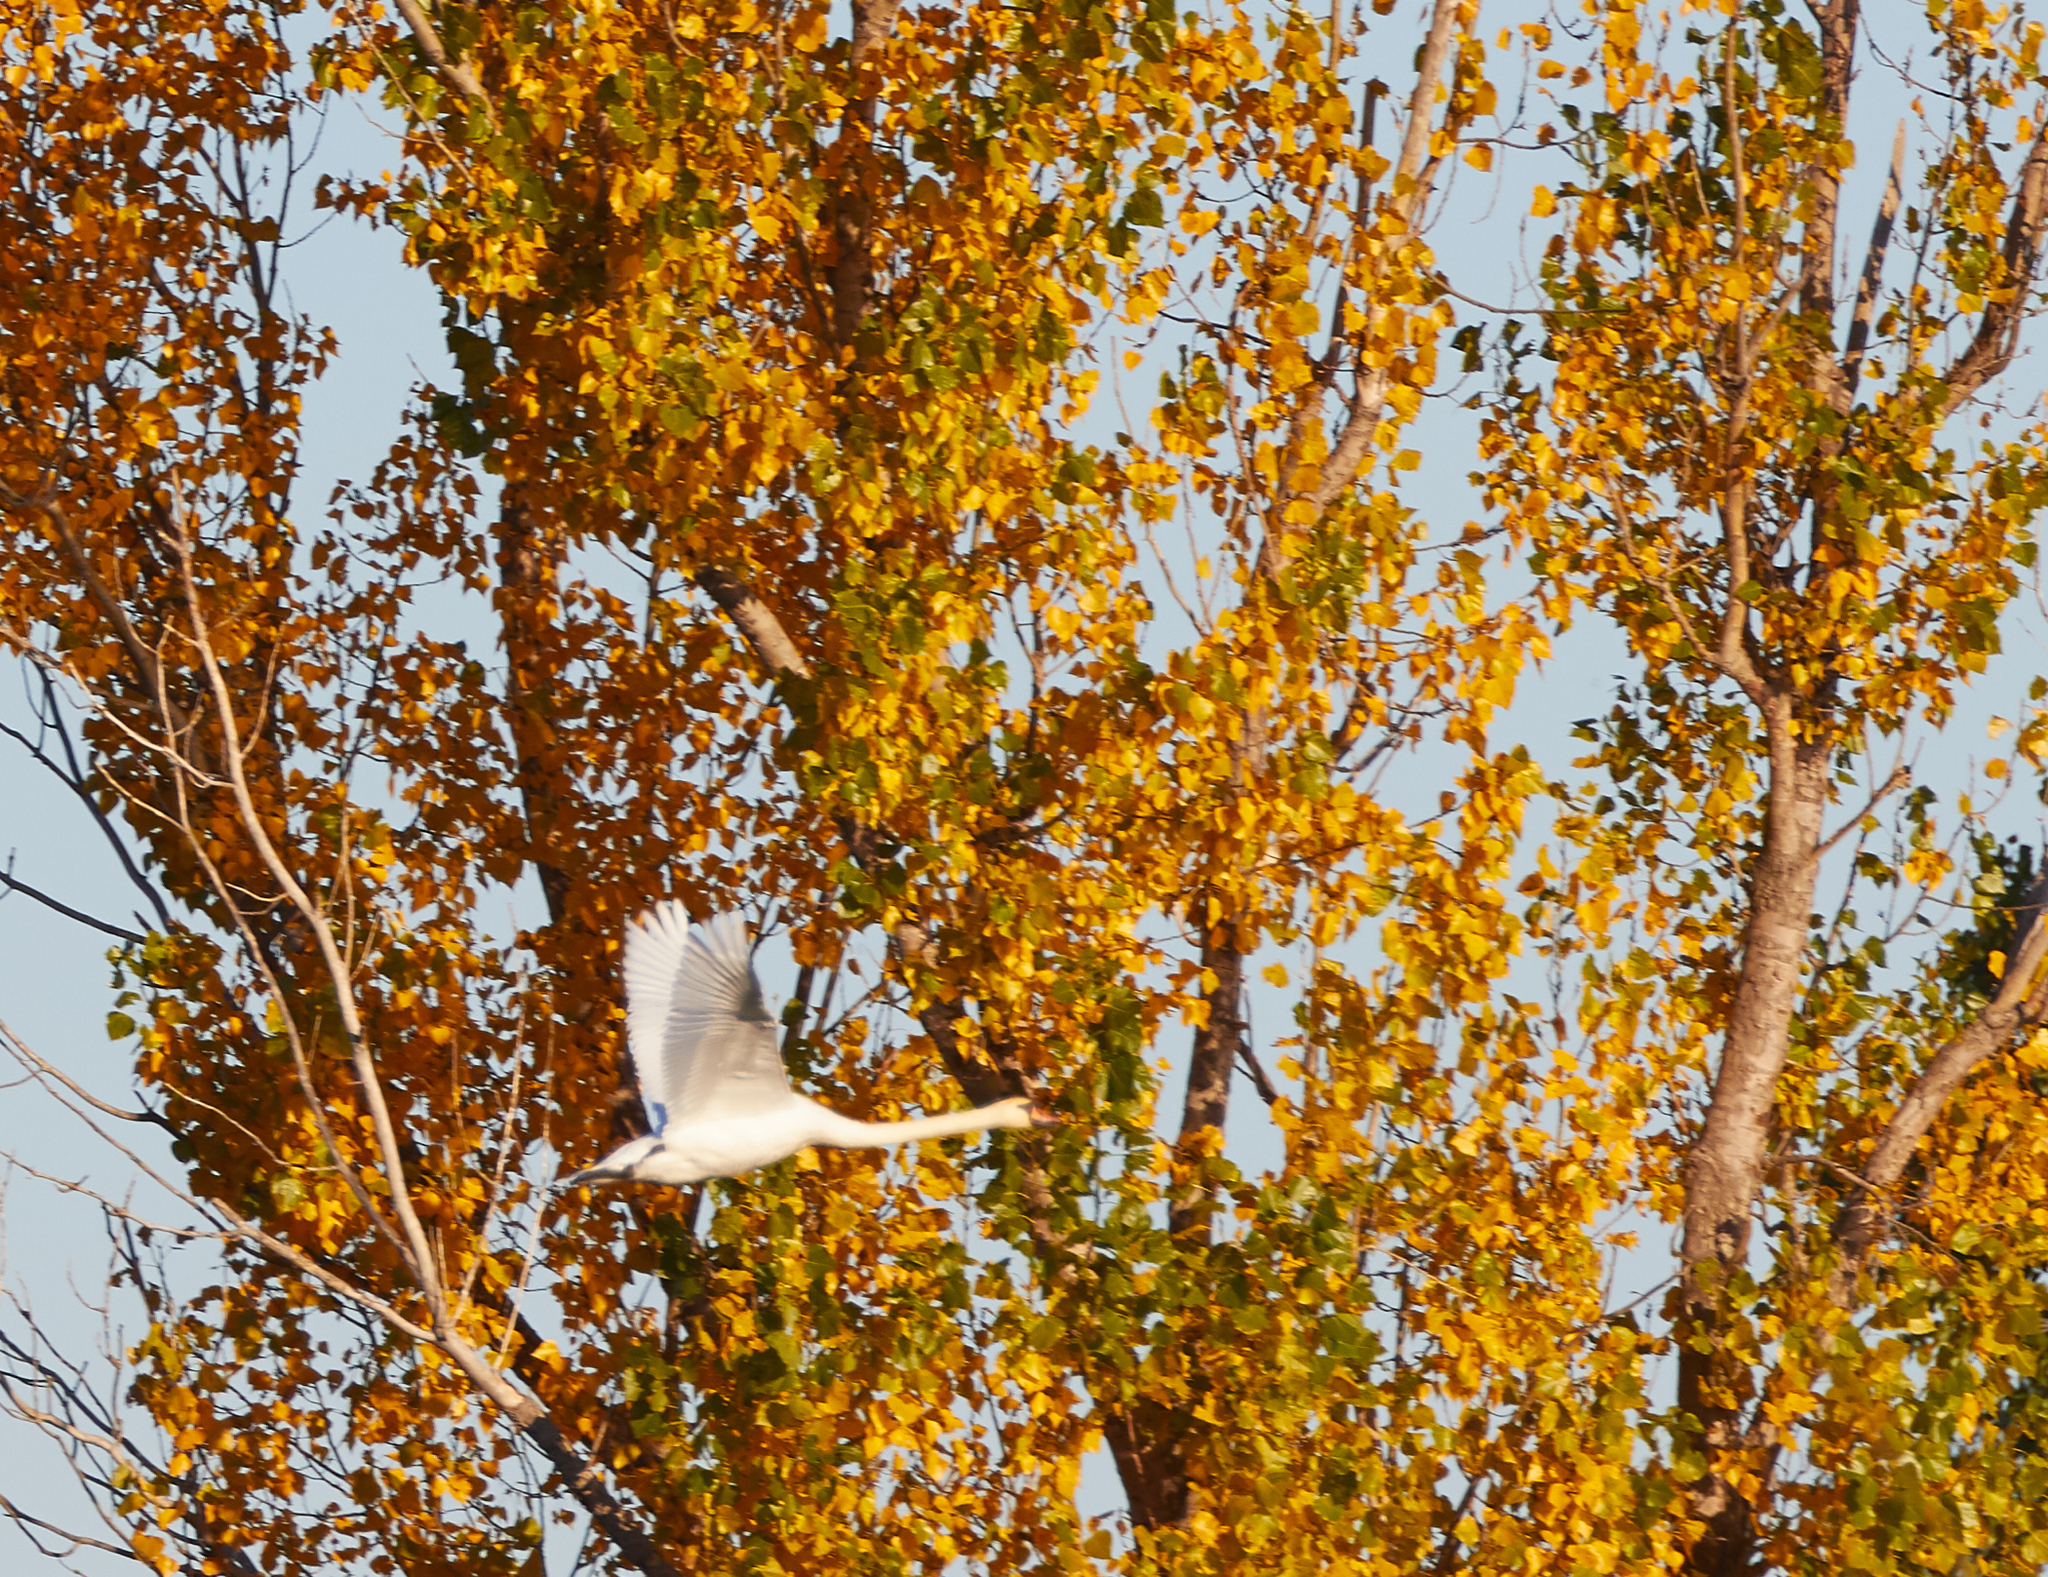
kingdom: Animalia
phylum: Chordata
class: Aves
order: Anseriformes
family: Anatidae
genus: Cygnus
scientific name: Cygnus olor
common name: Mute swan
